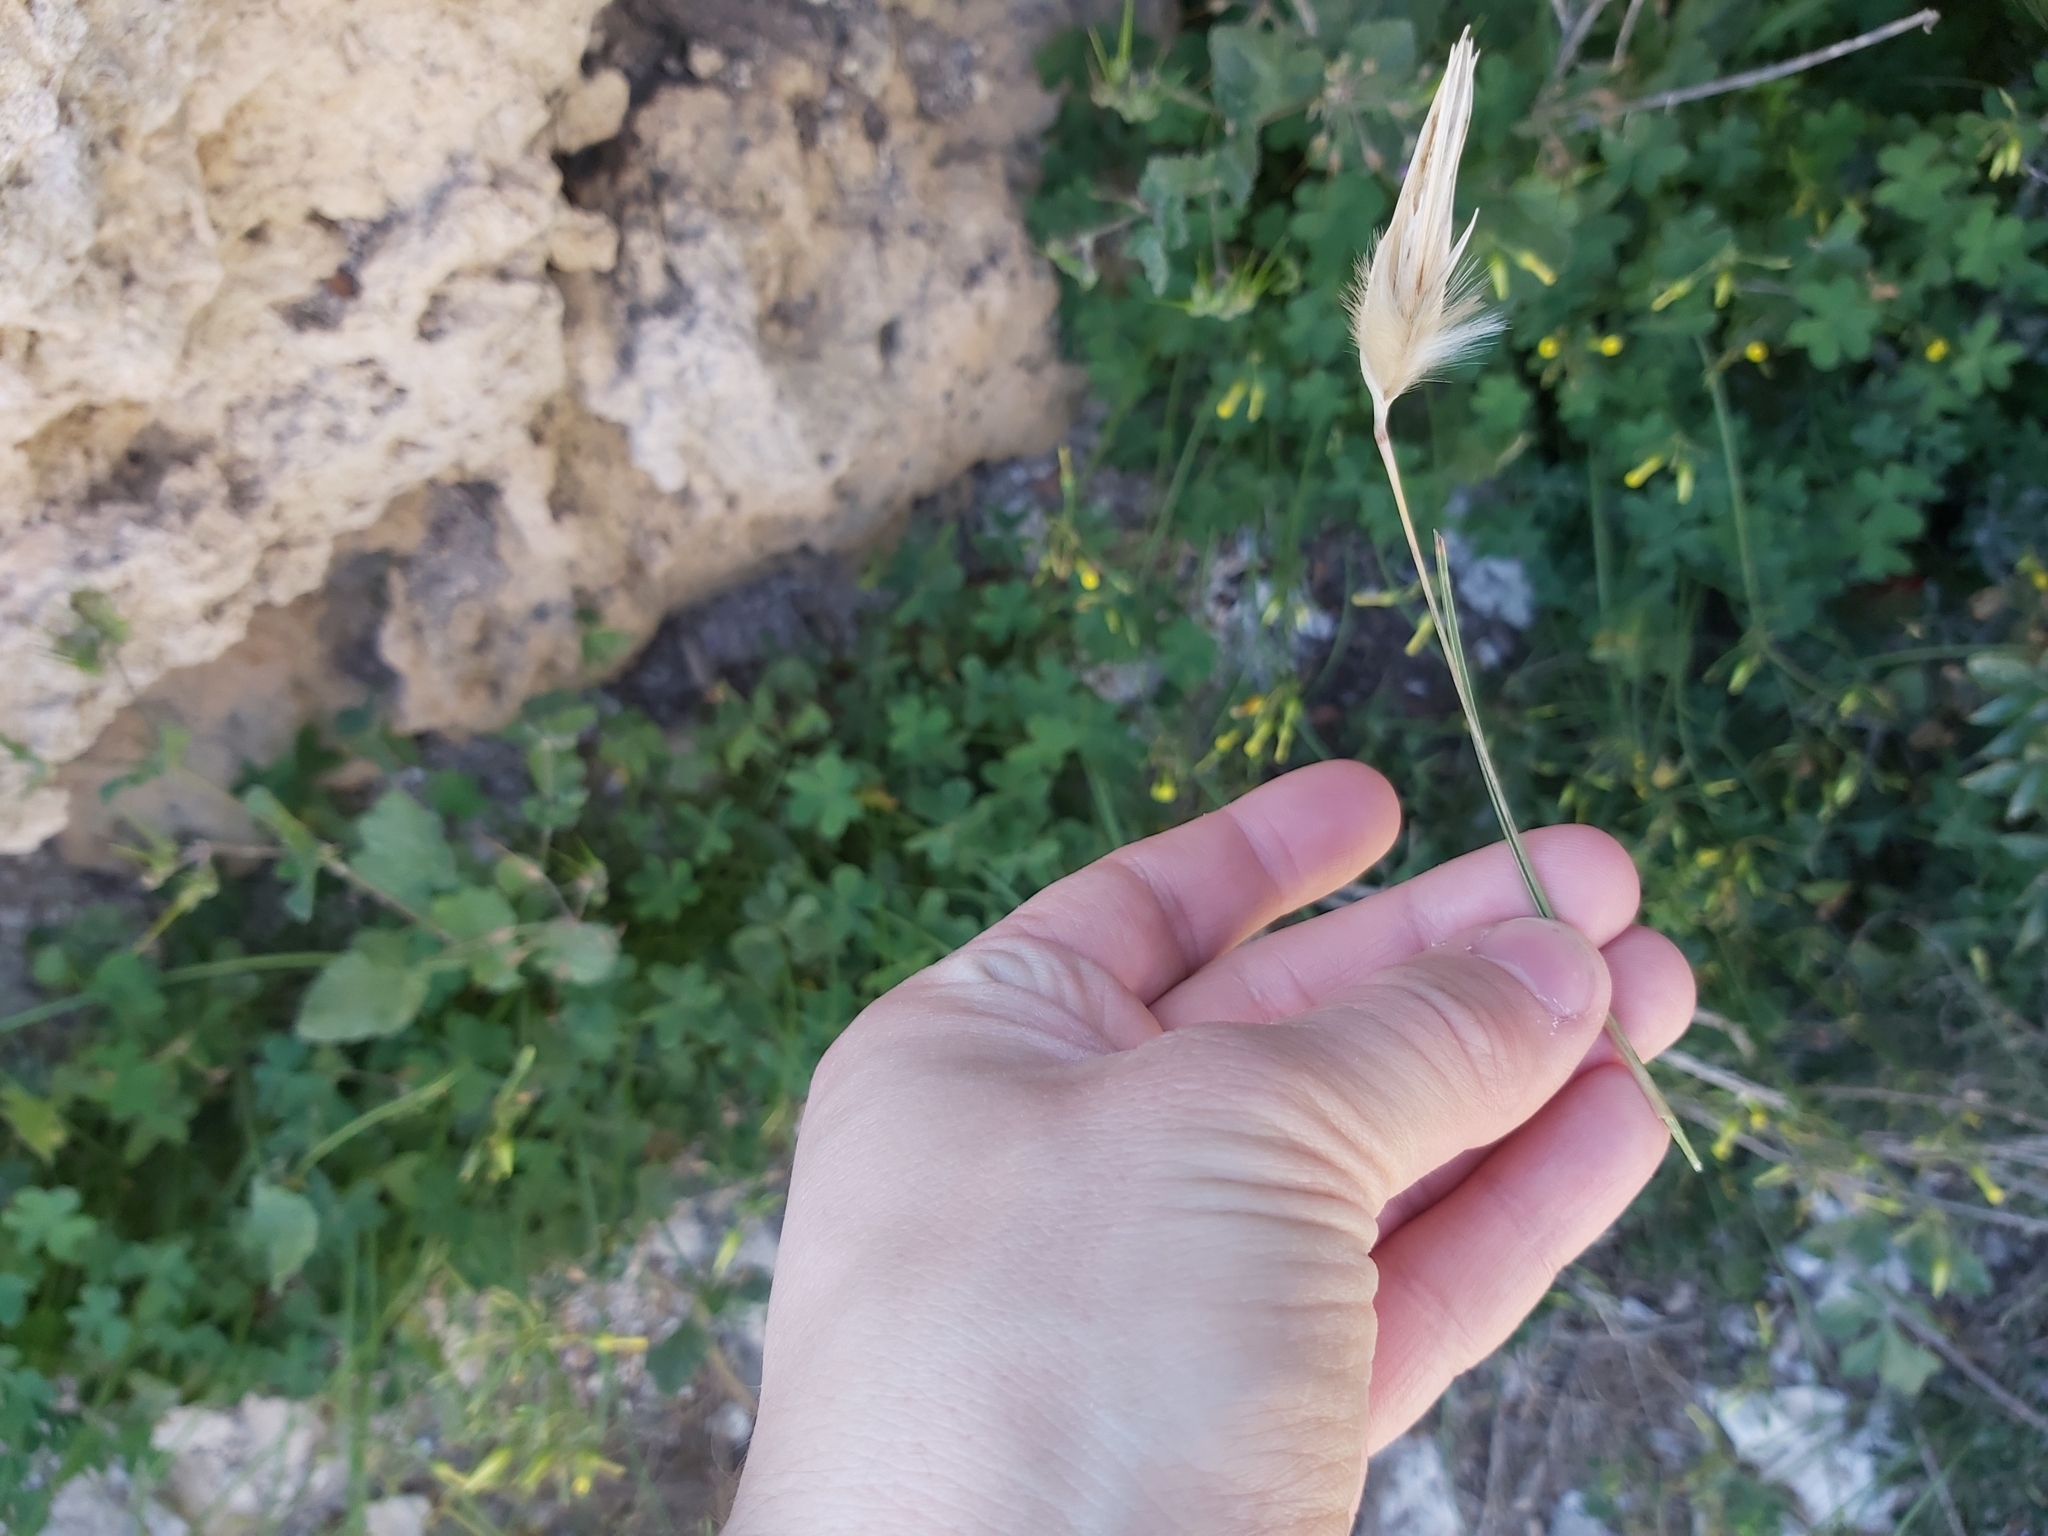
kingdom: Plantae
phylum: Tracheophyta
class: Liliopsida
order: Poales
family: Poaceae
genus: Lygeum
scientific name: Lygeum spartum
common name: Albardine
